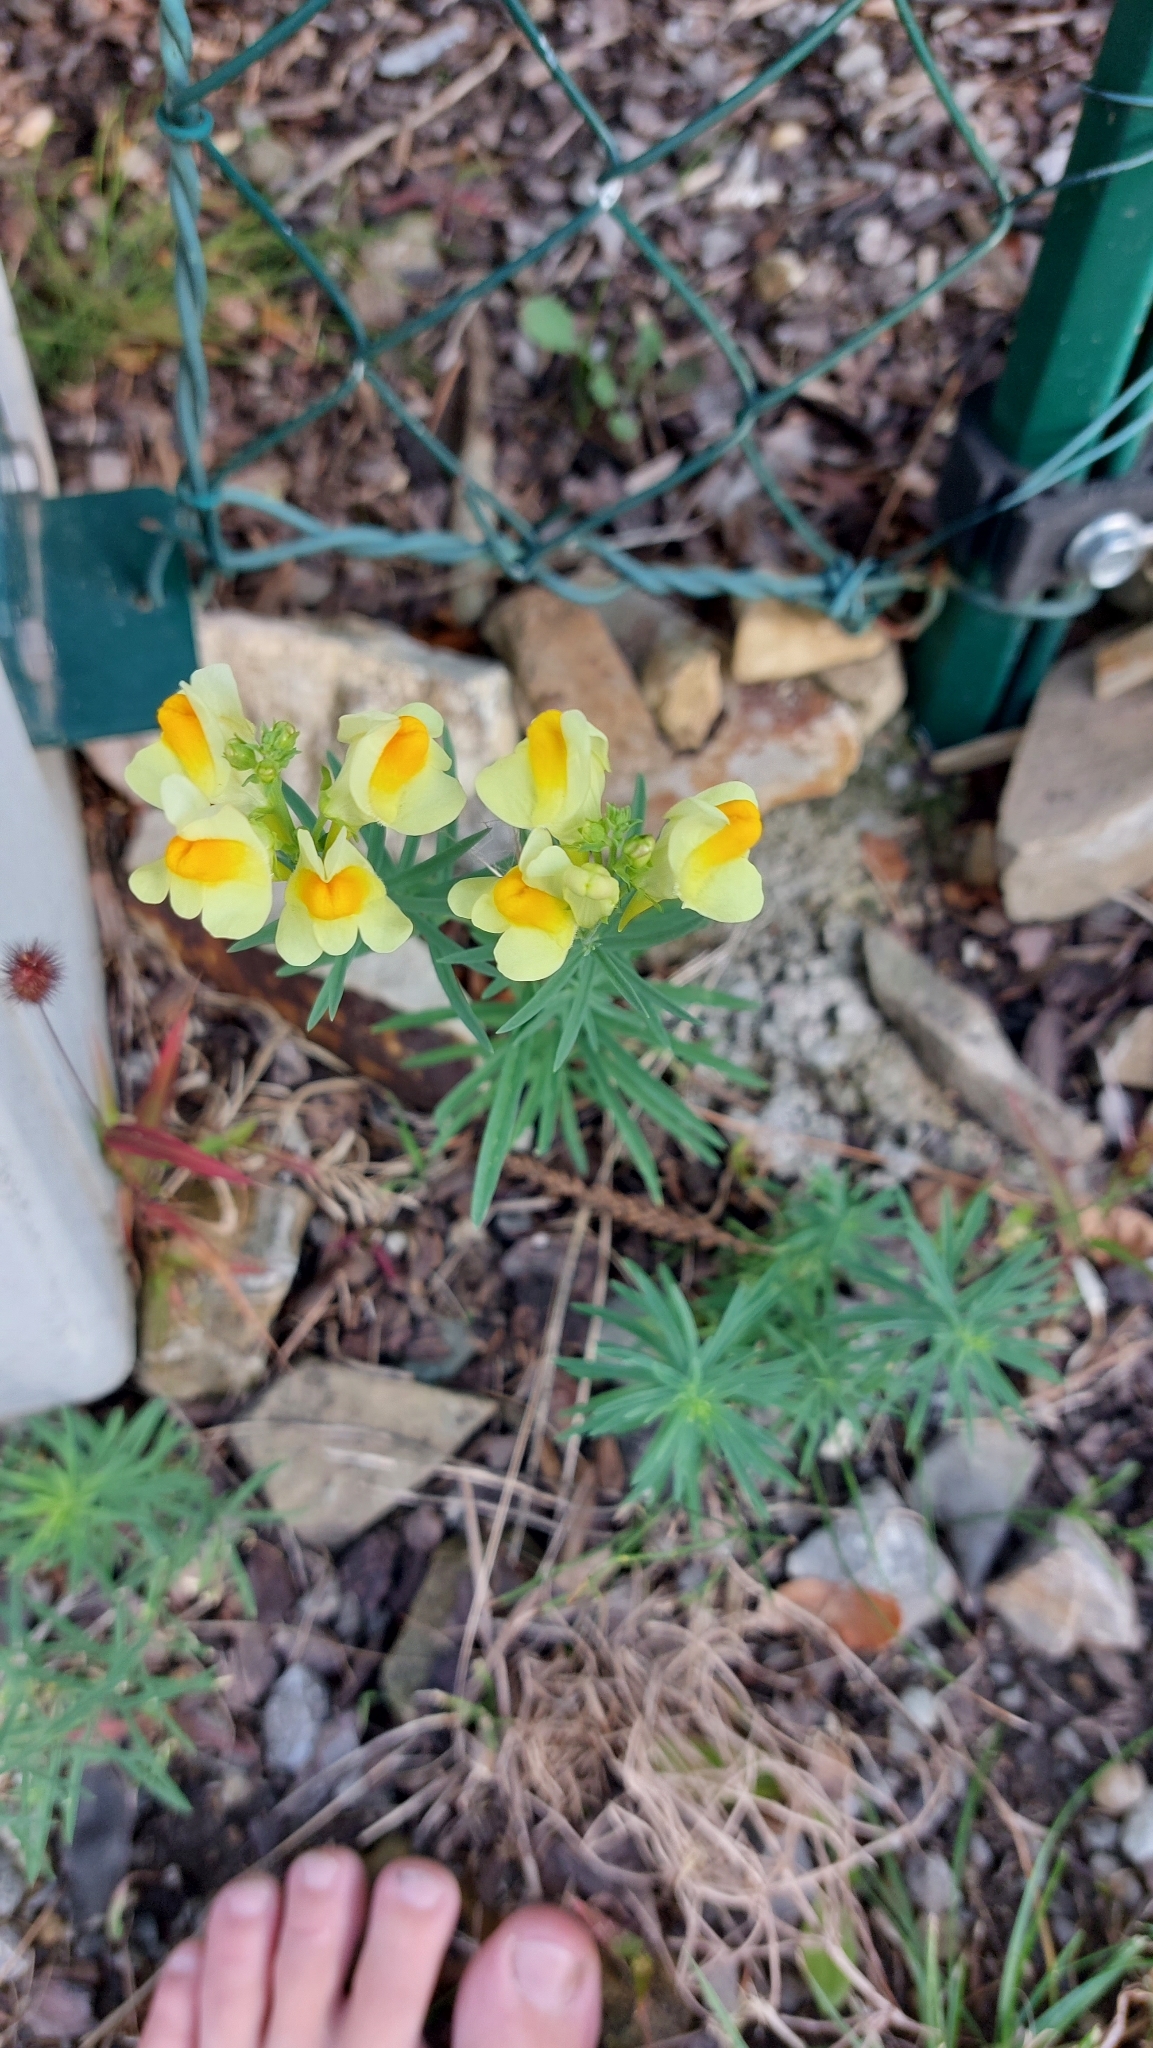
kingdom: Plantae
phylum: Tracheophyta
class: Magnoliopsida
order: Lamiales
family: Plantaginaceae
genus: Linaria
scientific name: Linaria vulgaris
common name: Butter and eggs
